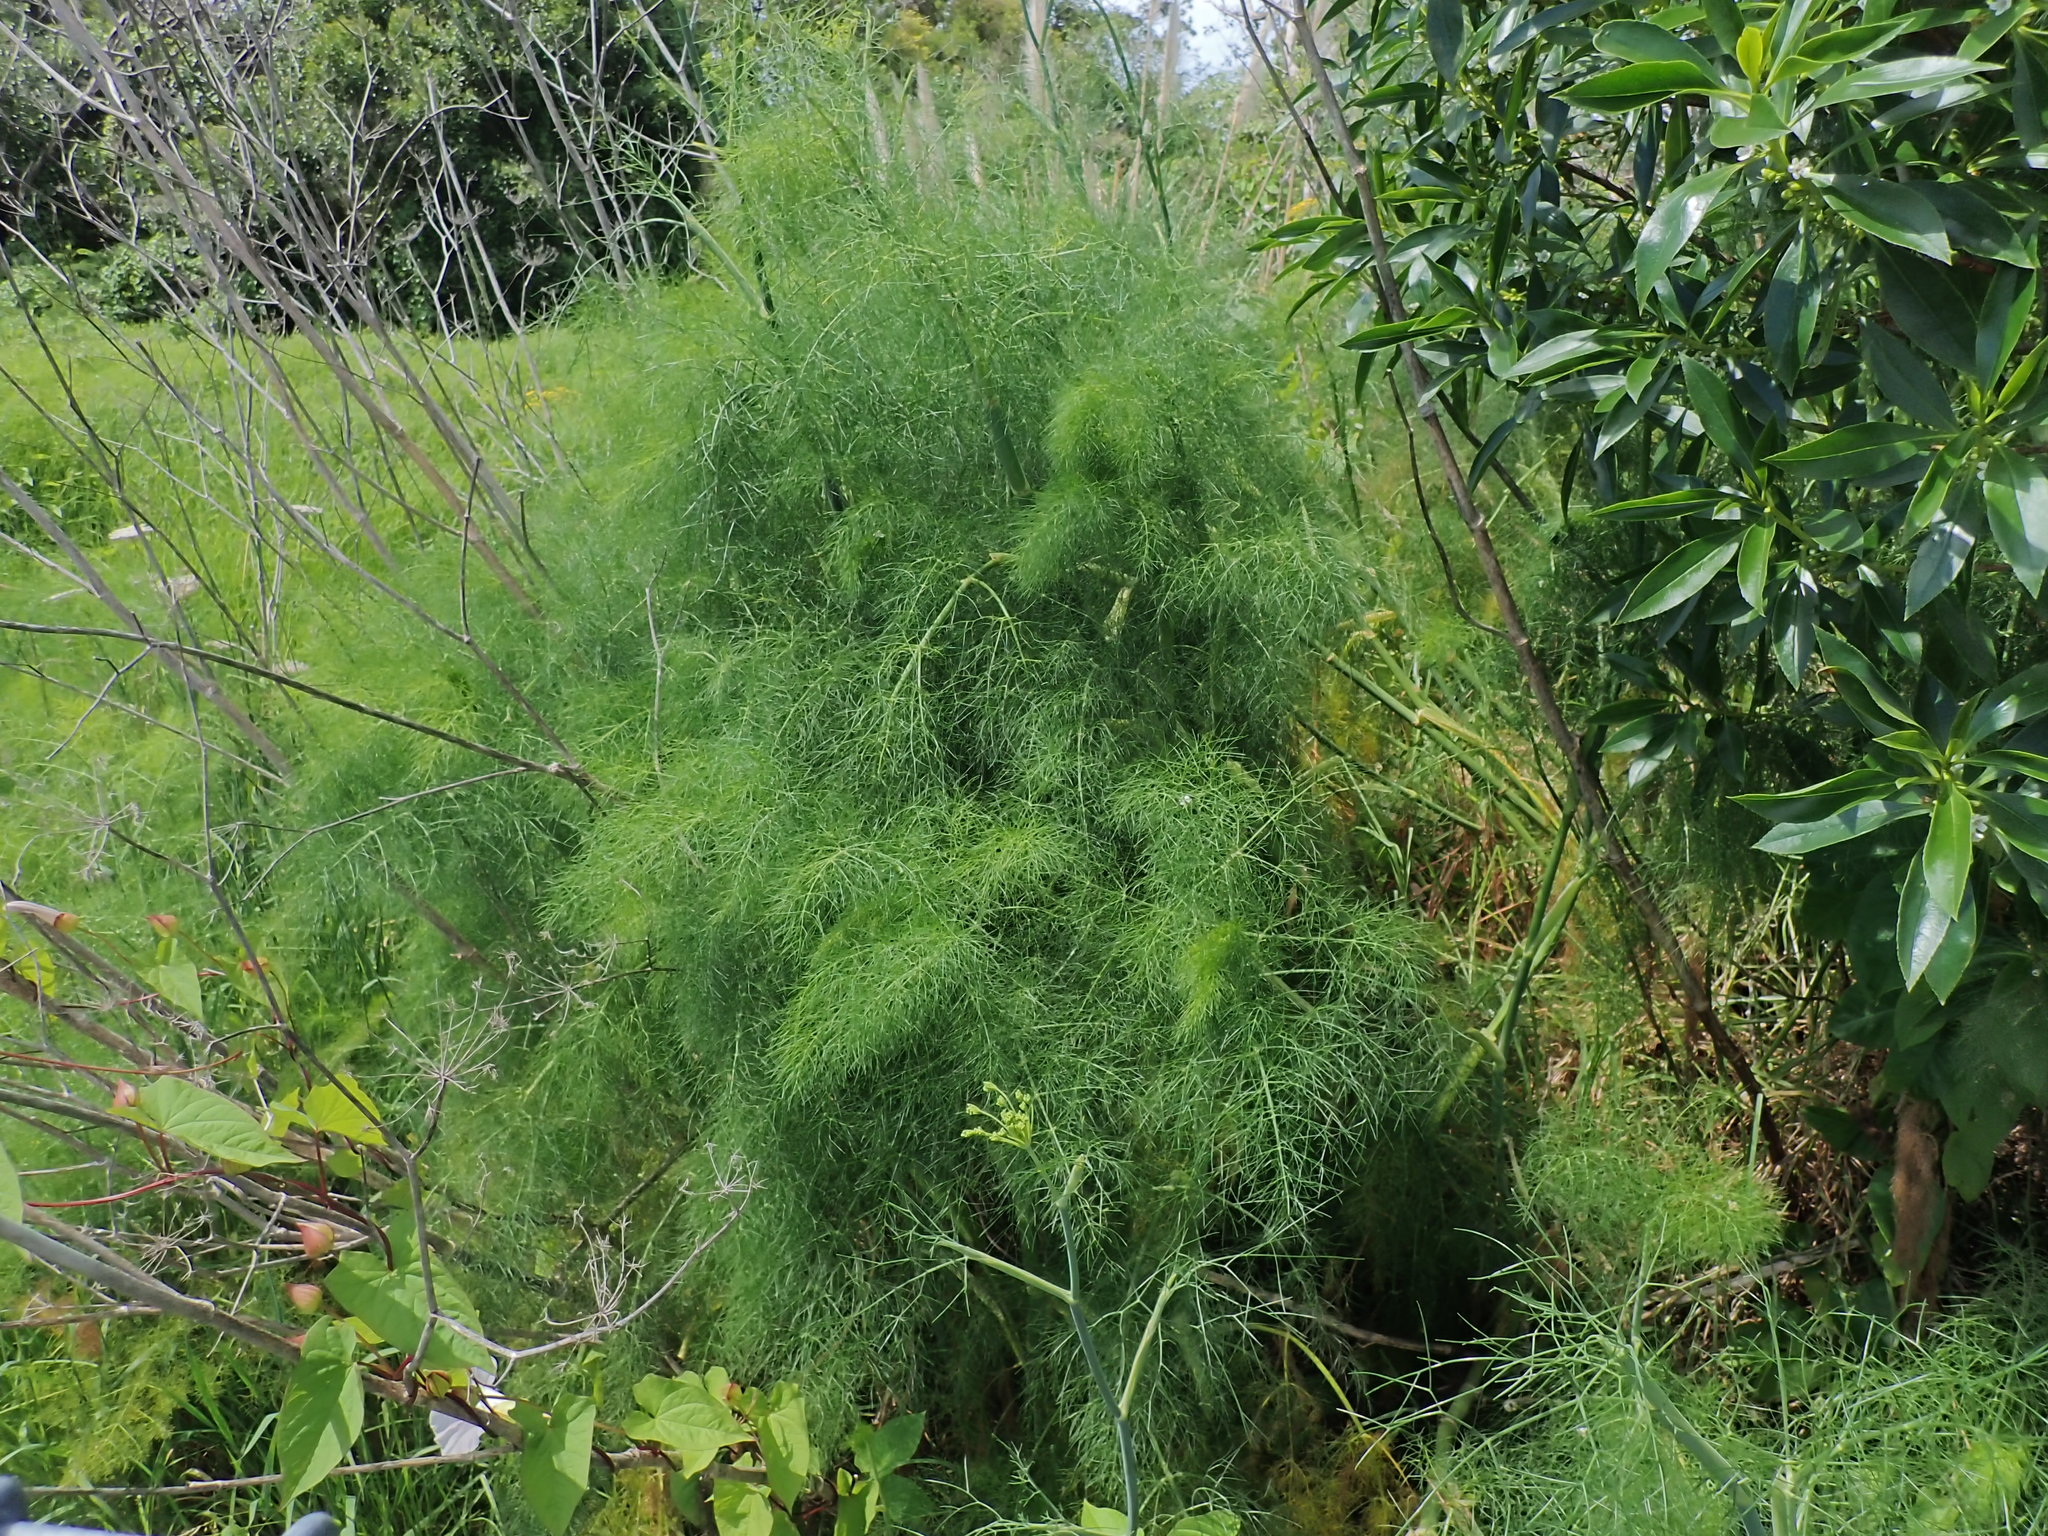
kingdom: Plantae
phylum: Tracheophyta
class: Magnoliopsida
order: Apiales
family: Apiaceae
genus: Foeniculum
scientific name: Foeniculum vulgare
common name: Fennel
